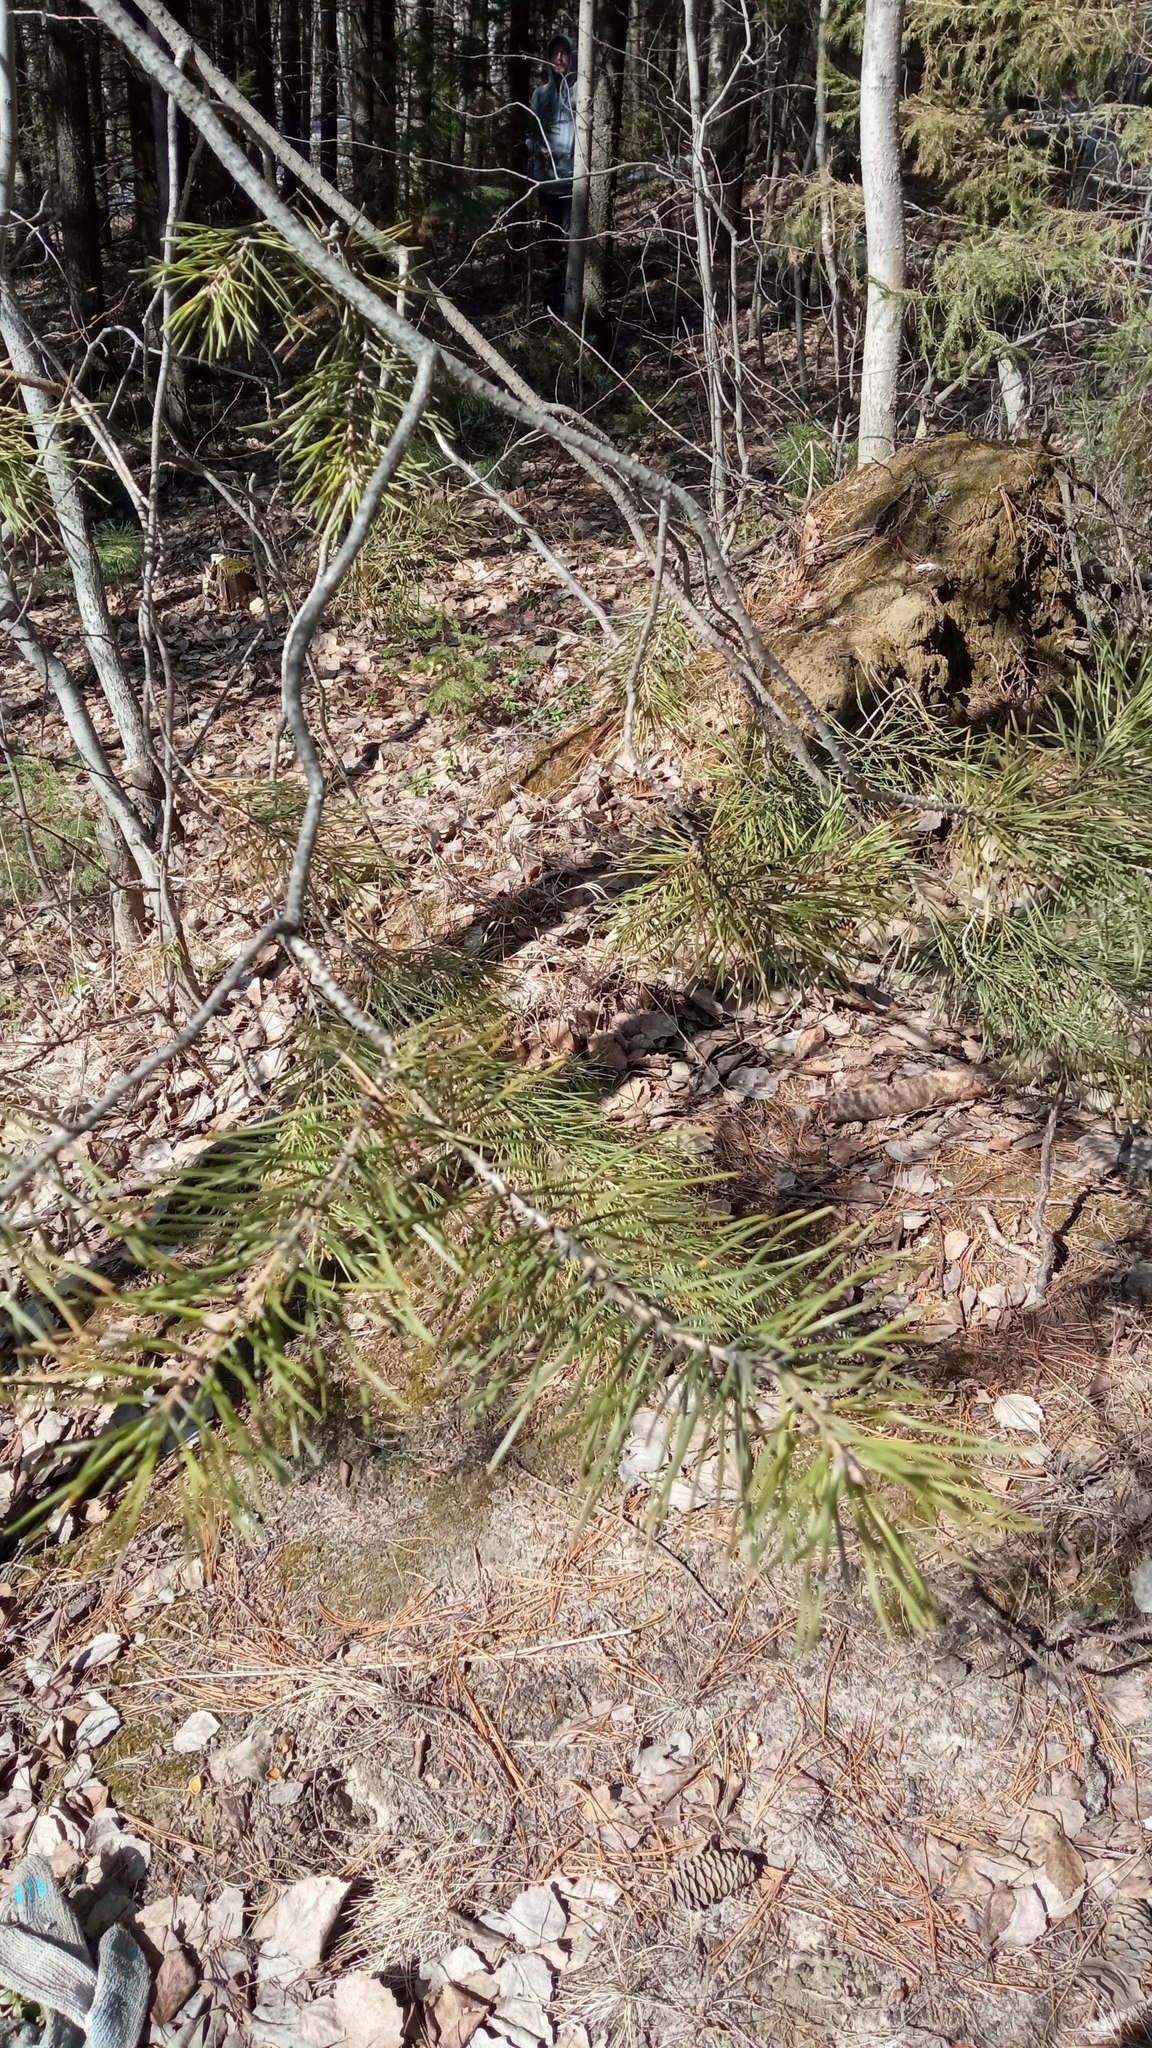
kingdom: Plantae
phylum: Tracheophyta
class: Pinopsida
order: Pinales
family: Pinaceae
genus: Pinus
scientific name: Pinus sylvestris
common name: Scots pine
